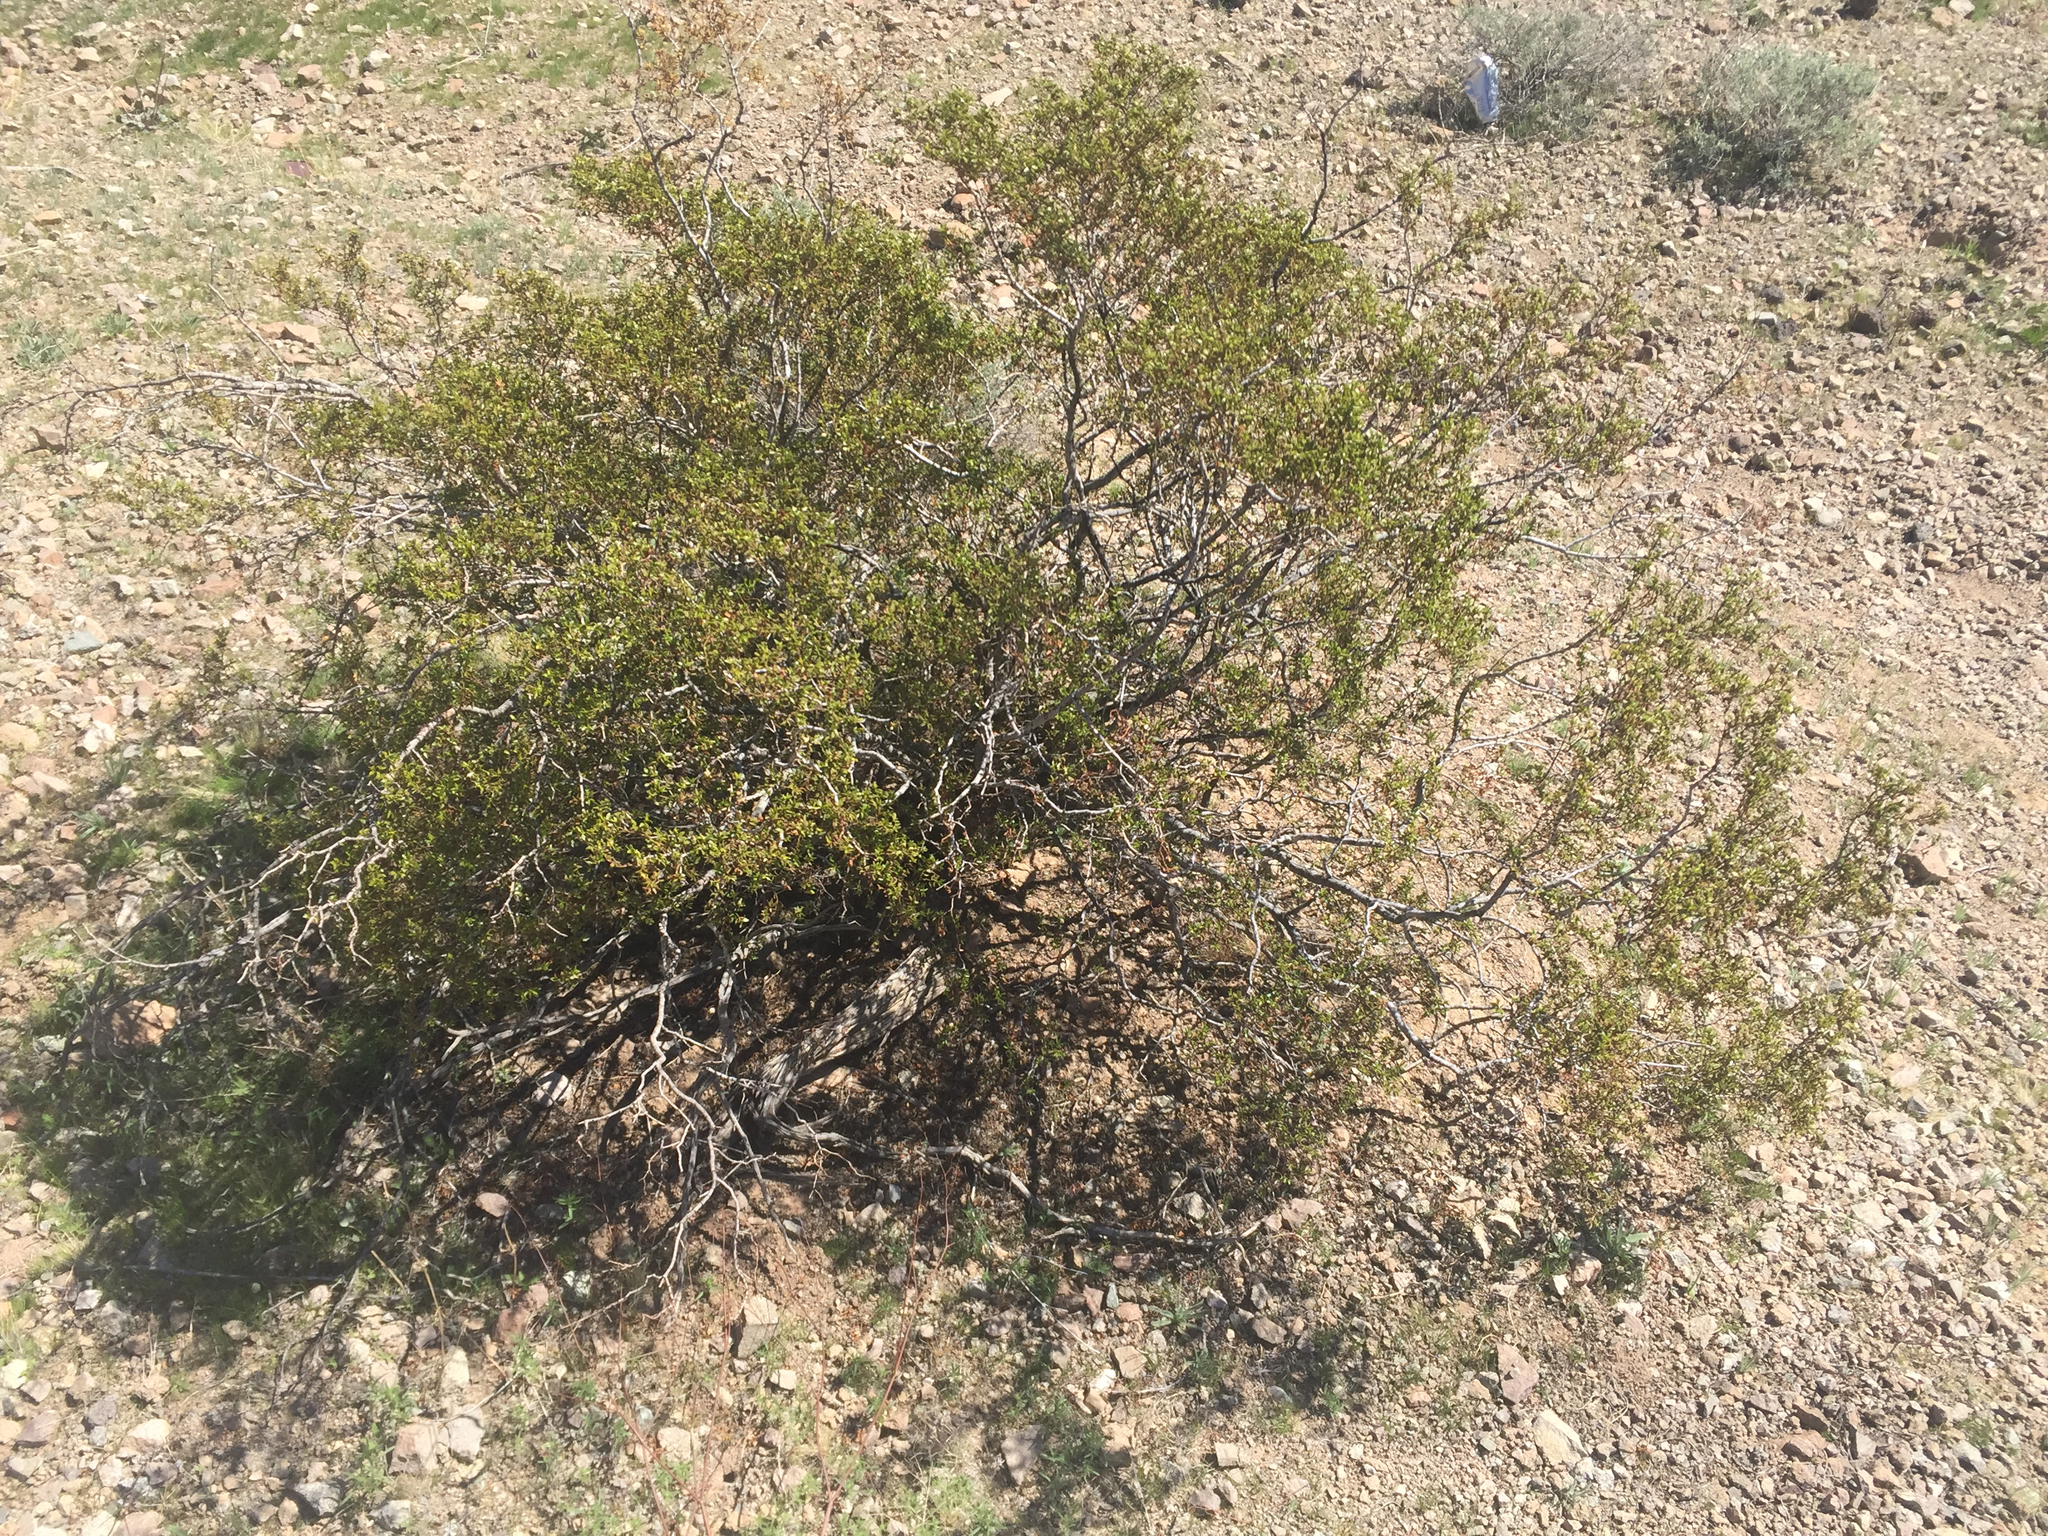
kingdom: Plantae
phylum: Tracheophyta
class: Magnoliopsida
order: Zygophyllales
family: Zygophyllaceae
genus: Larrea
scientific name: Larrea tridentata
